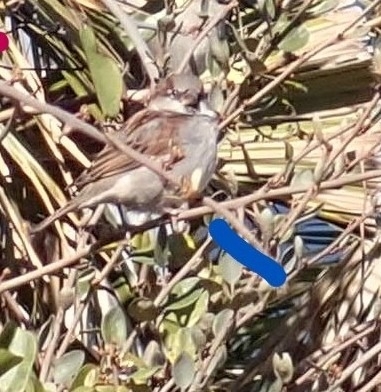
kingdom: Animalia
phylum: Chordata
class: Aves
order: Passeriformes
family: Passeridae
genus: Passer
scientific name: Passer domesticus
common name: House sparrow
